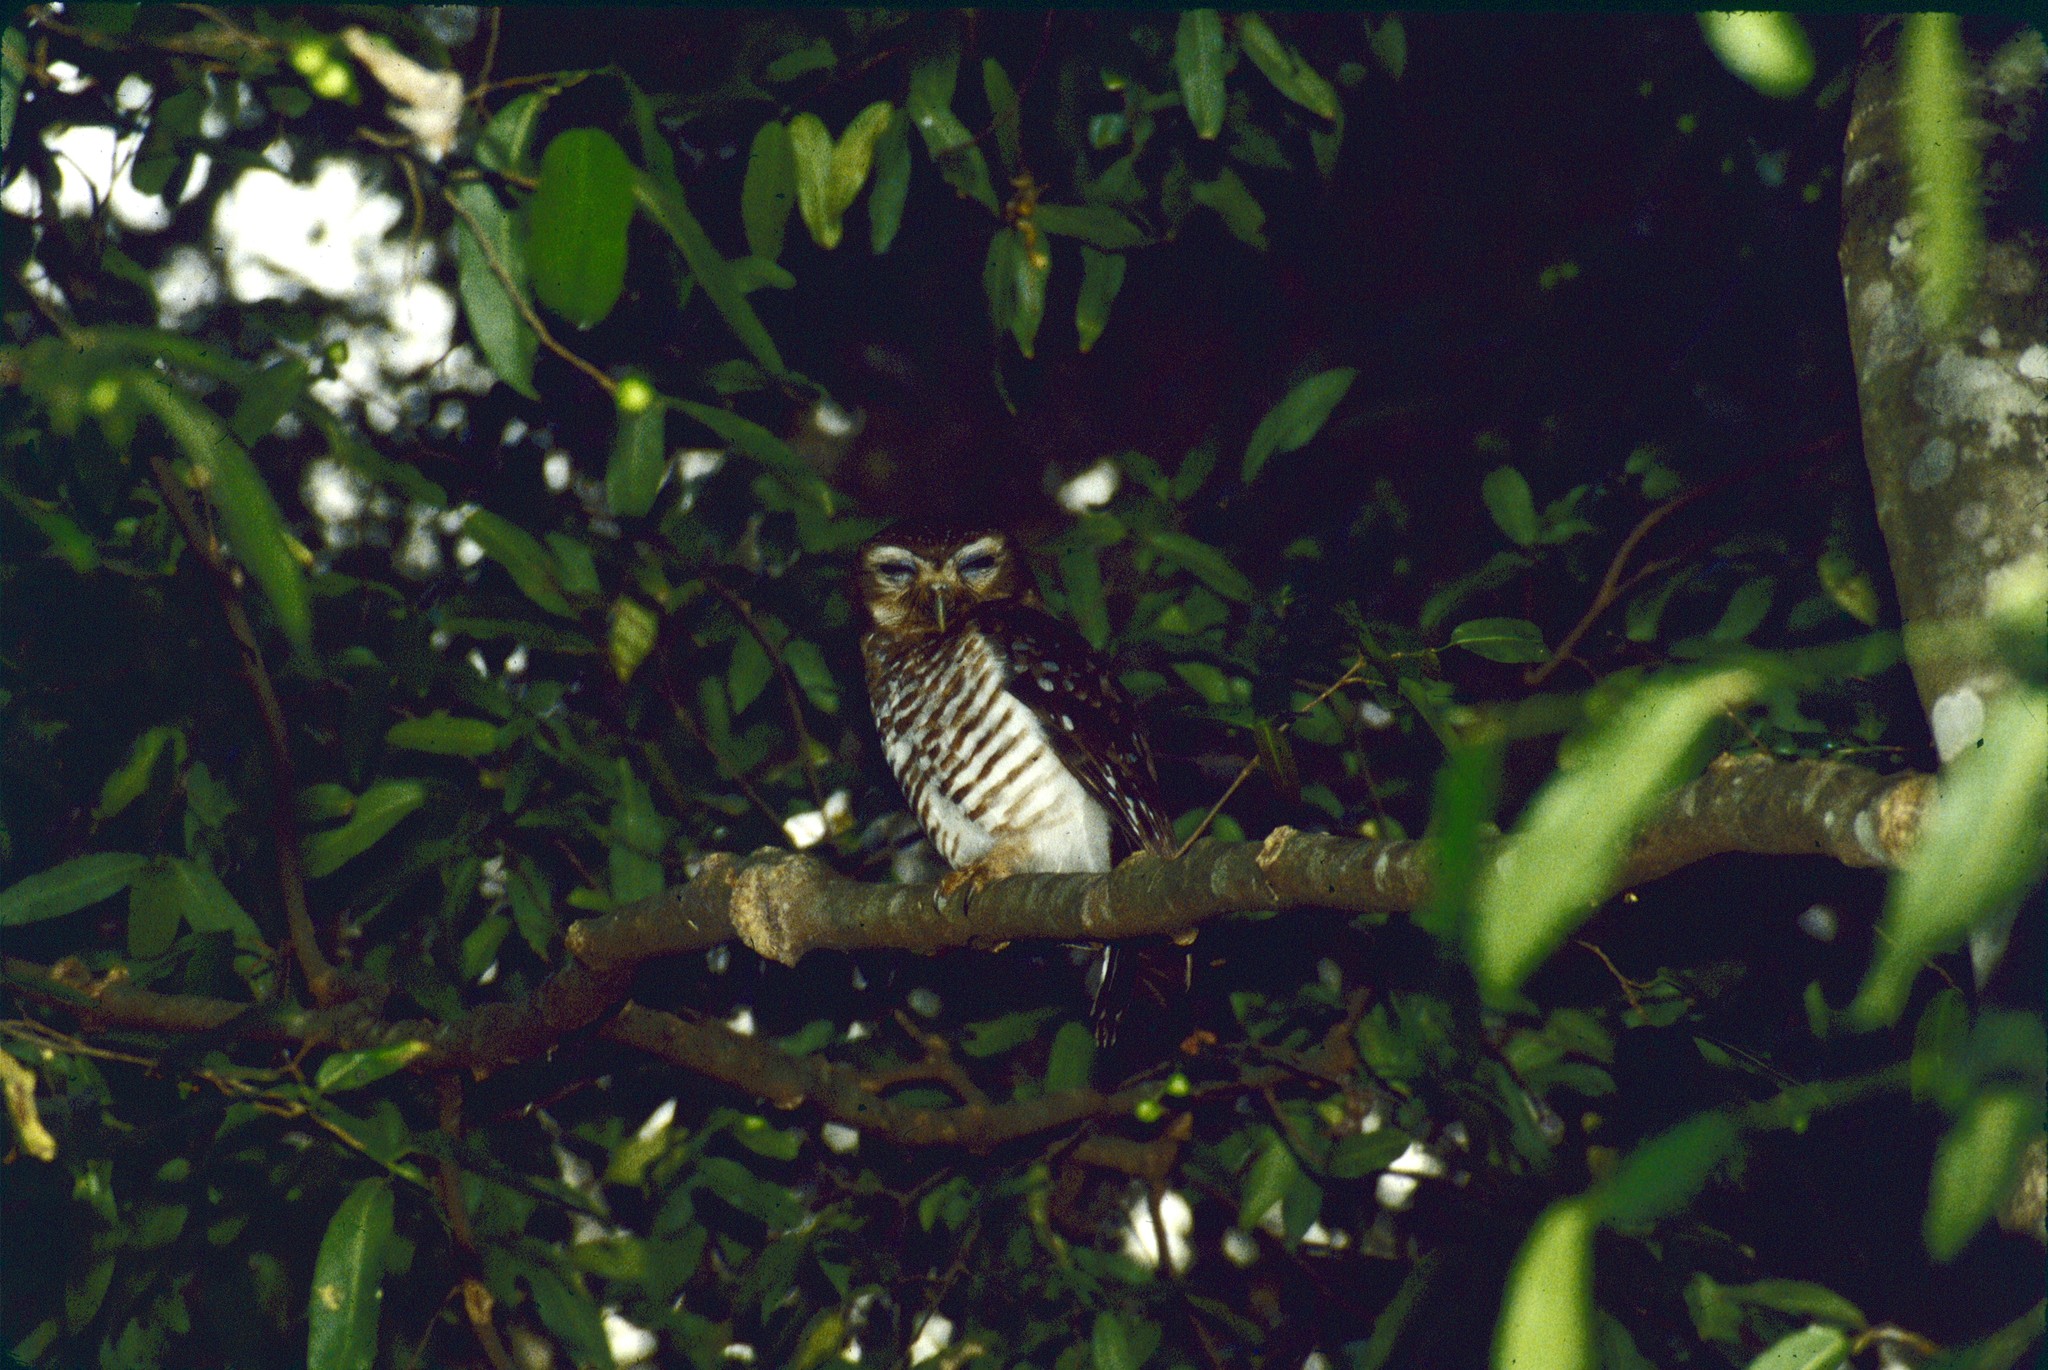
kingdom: Animalia
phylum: Chordata
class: Aves
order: Strigiformes
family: Strigidae
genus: Ninox
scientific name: Ninox superciliaris
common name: White-browed hawk-owl
